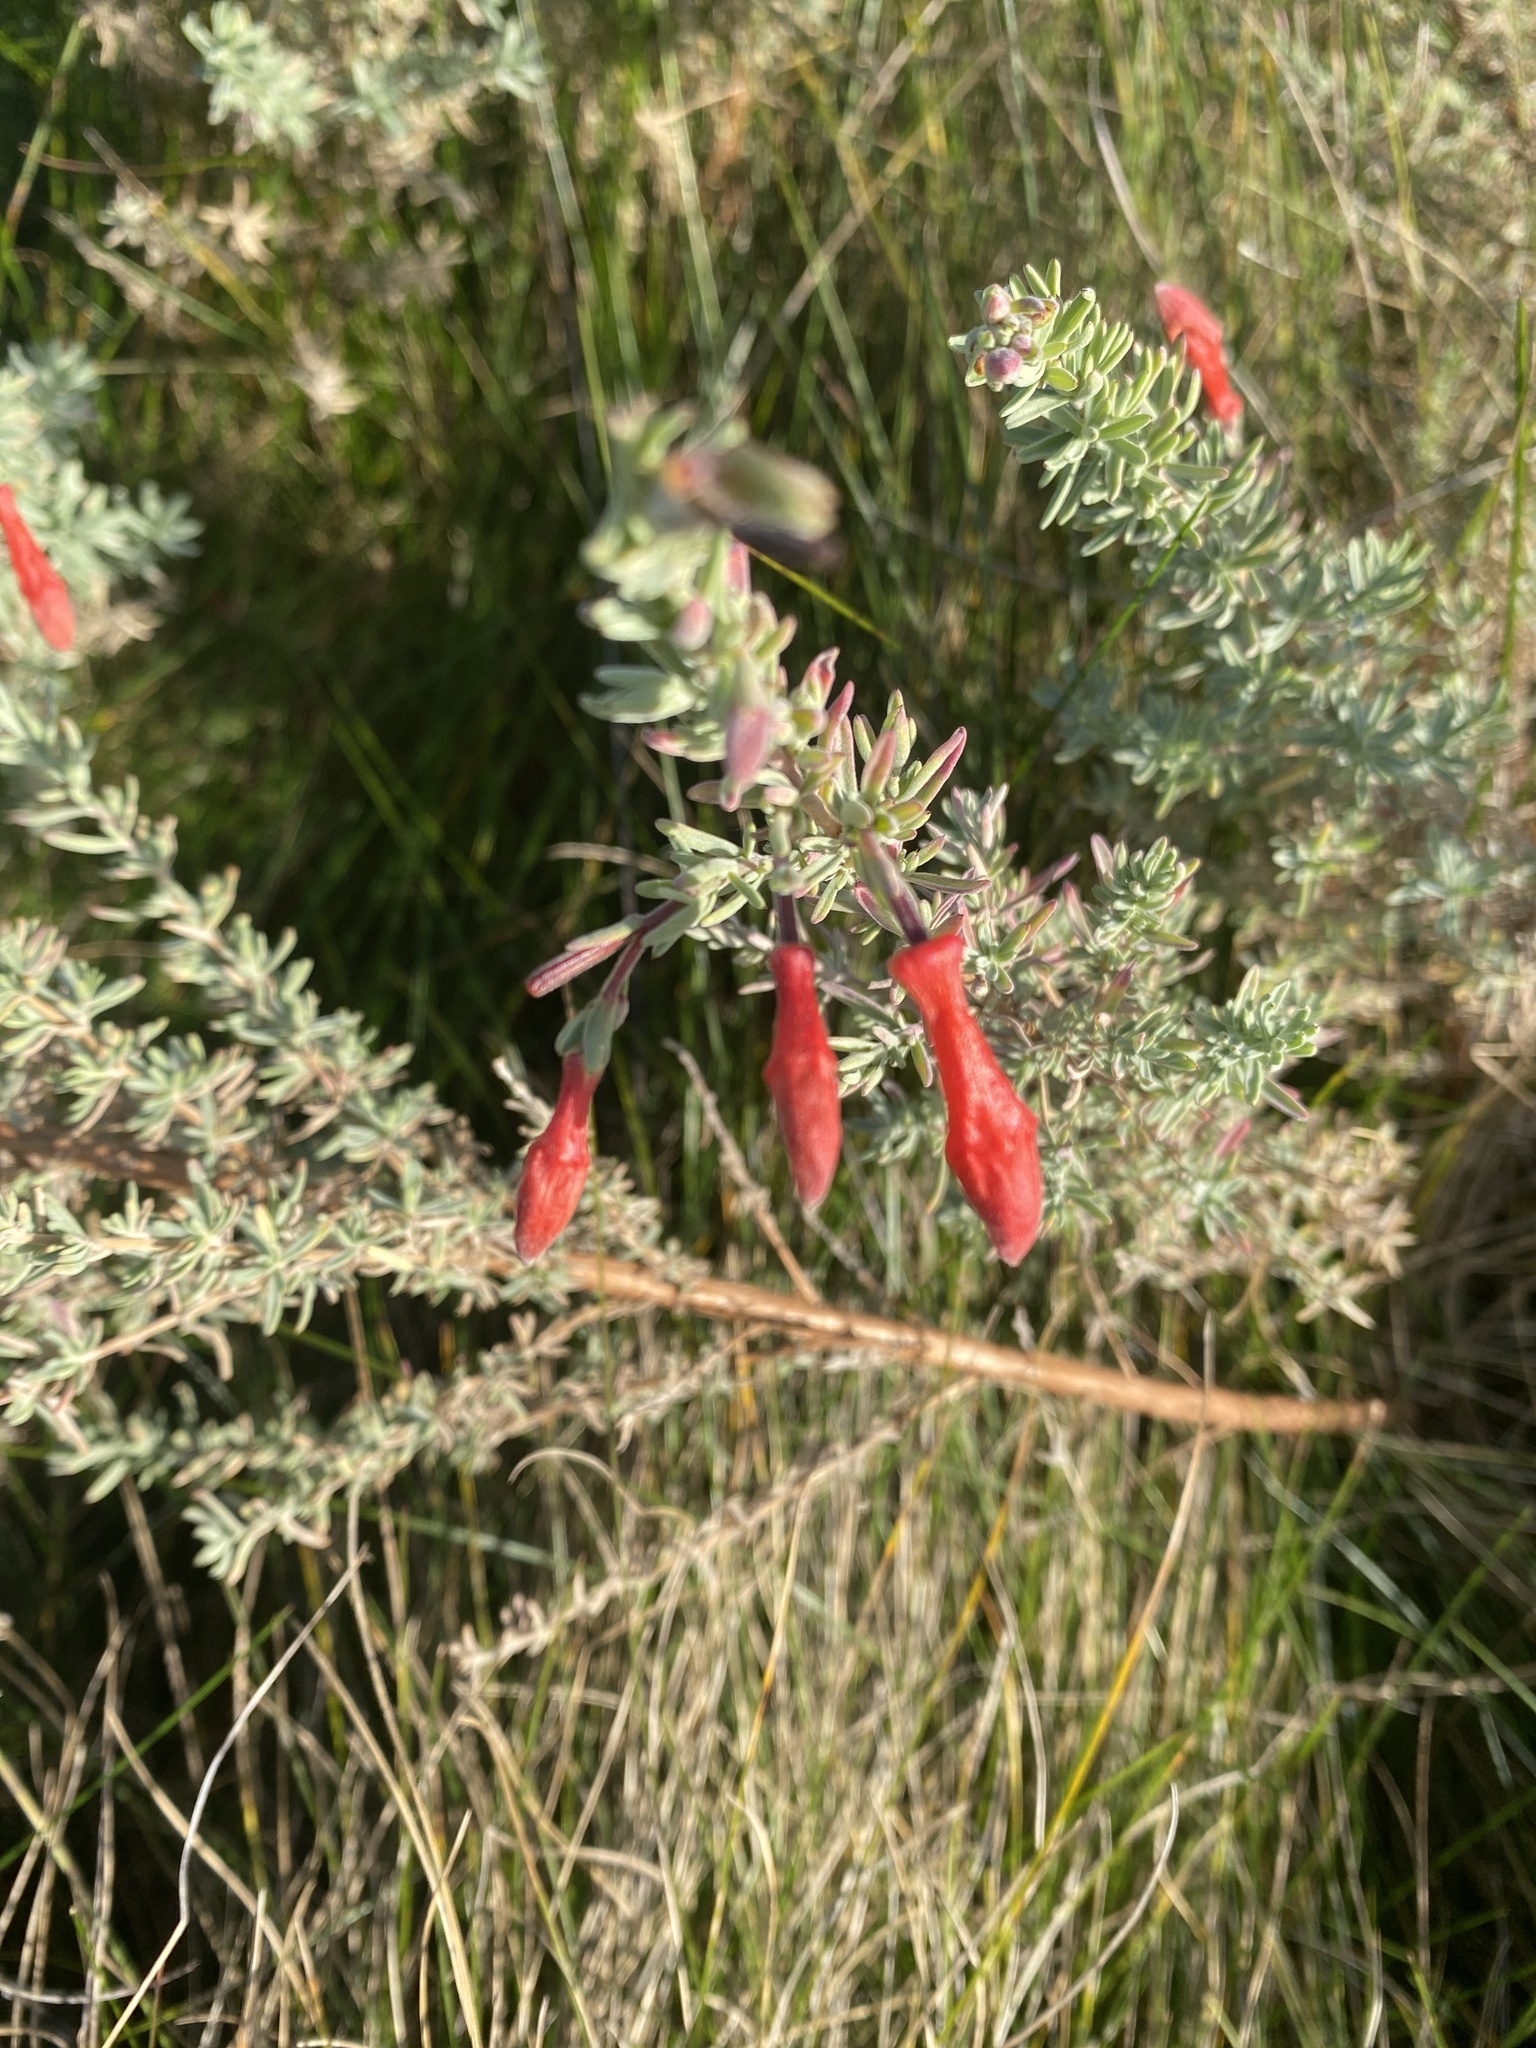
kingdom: Plantae
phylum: Tracheophyta
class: Magnoliopsida
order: Myrtales
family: Onagraceae
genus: Epilobium
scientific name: Epilobium canum
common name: California-fuchsia
